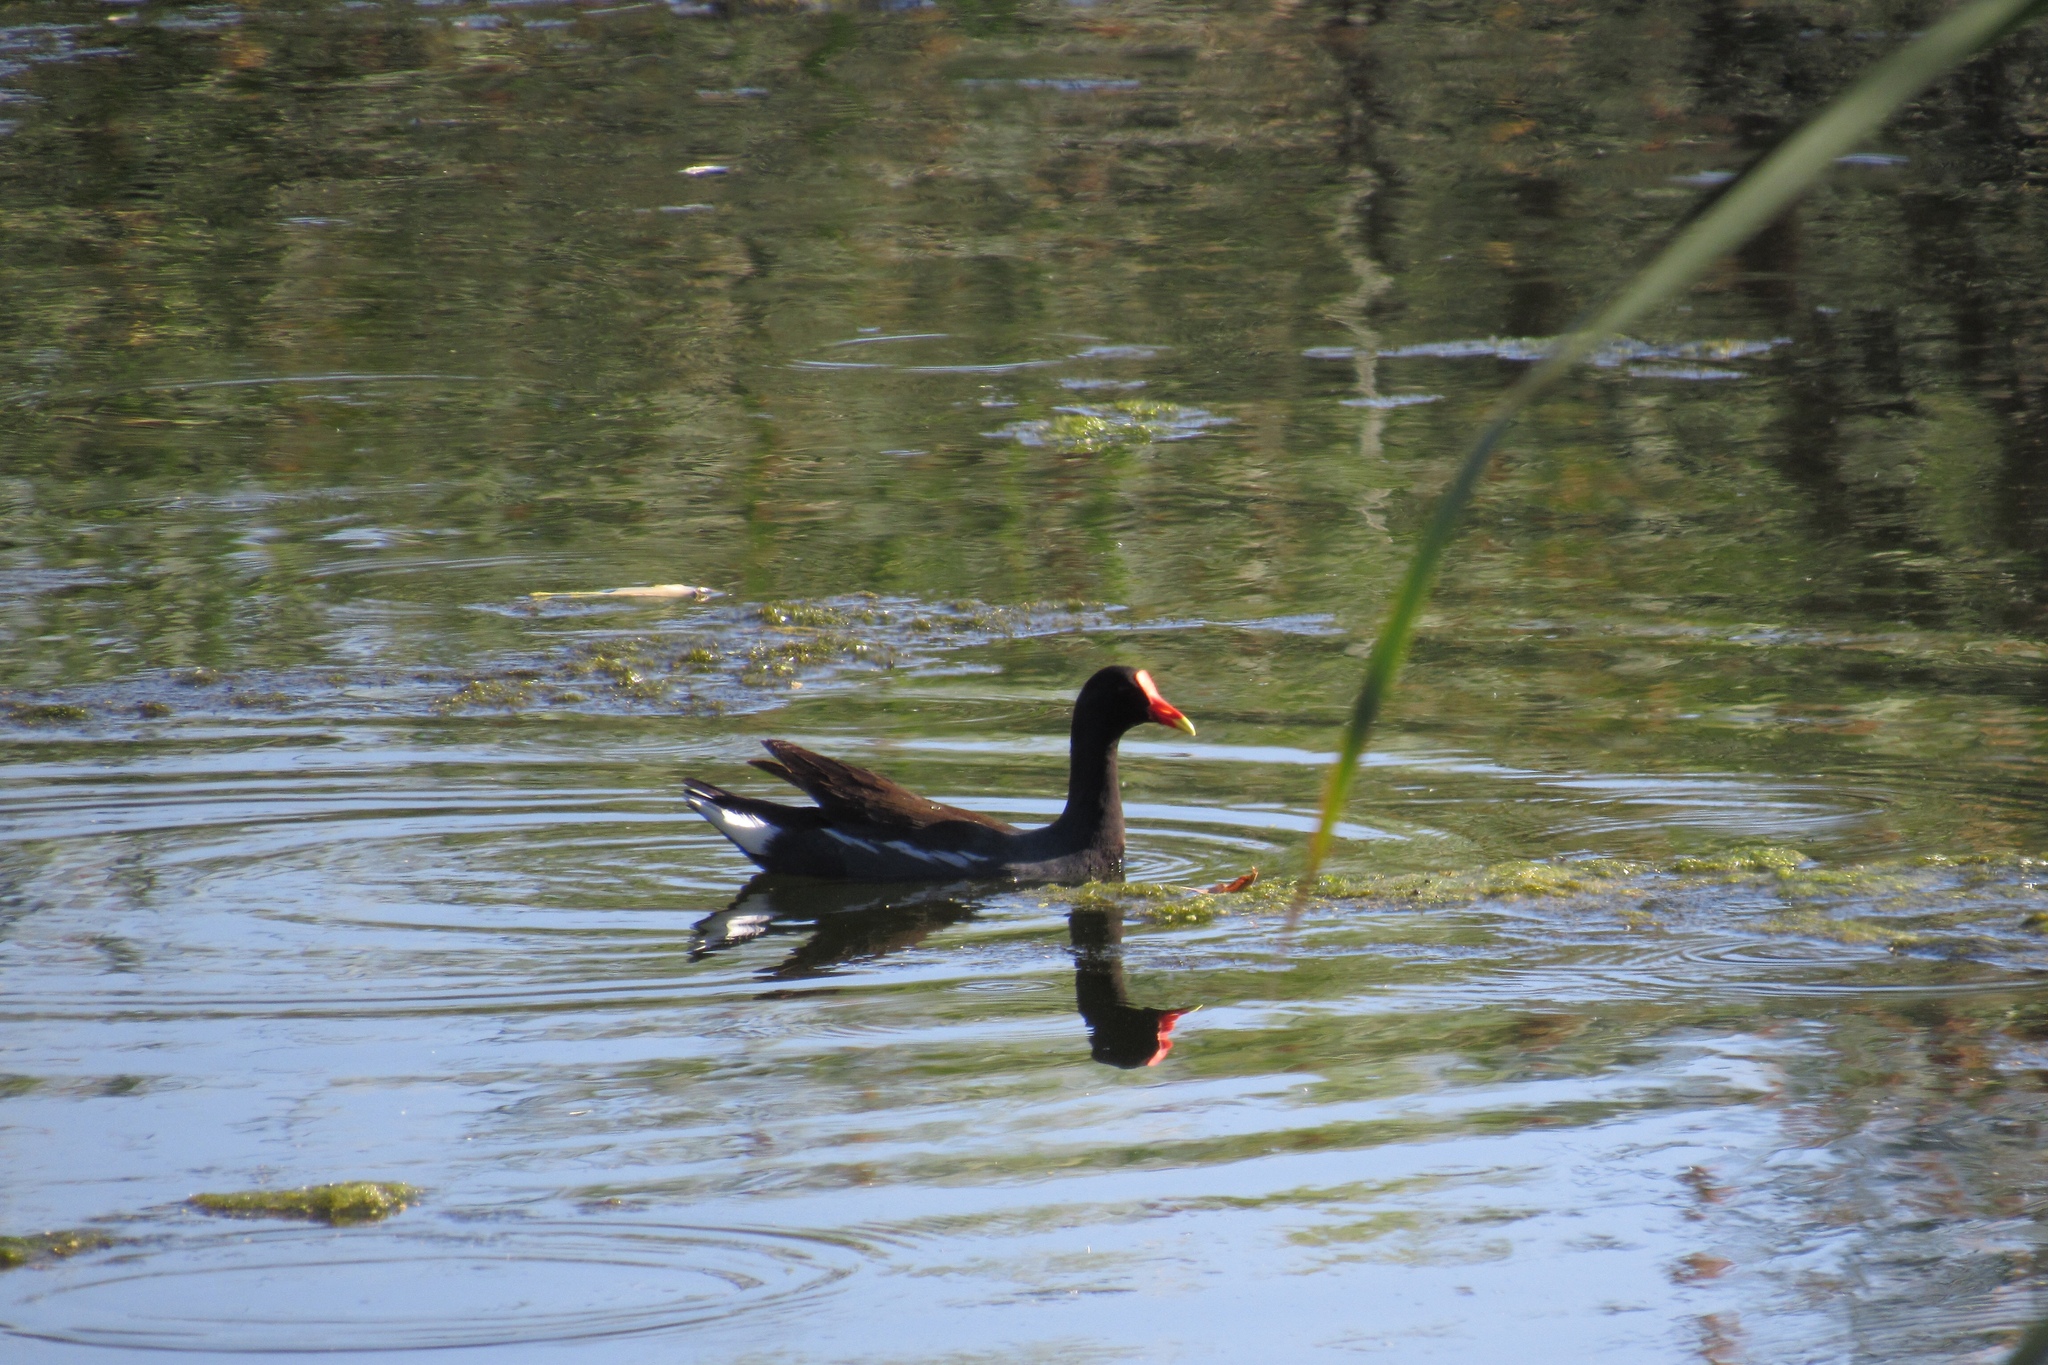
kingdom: Animalia
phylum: Chordata
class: Aves
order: Gruiformes
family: Rallidae
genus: Gallinula
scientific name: Gallinula chloropus
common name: Common moorhen
